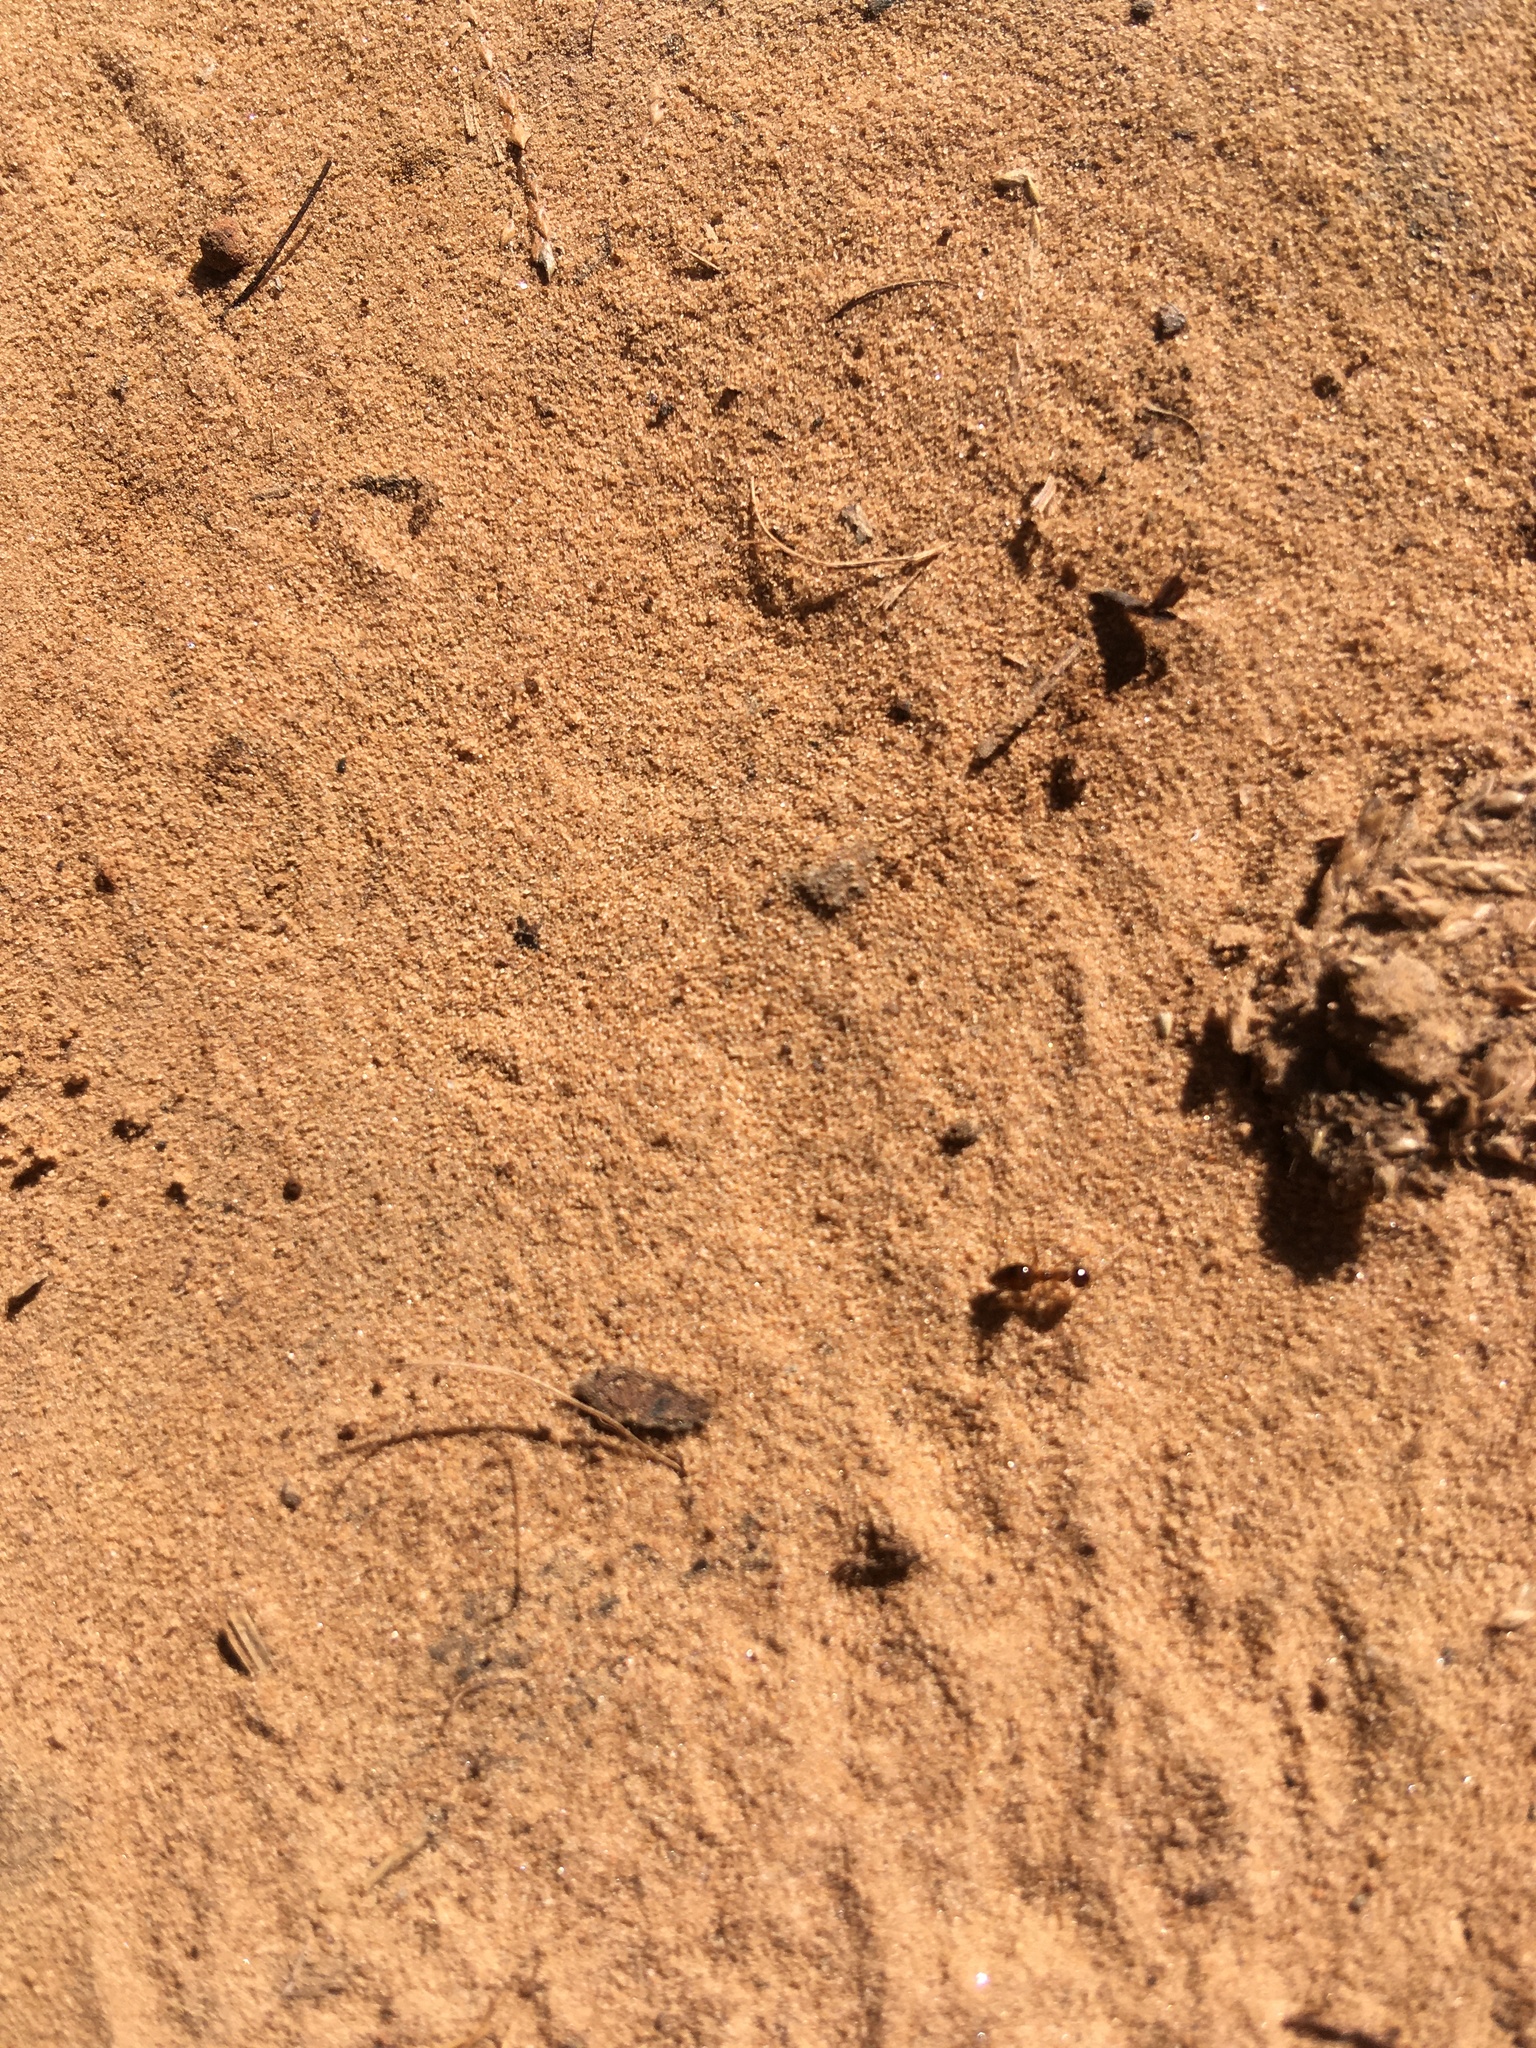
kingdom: Animalia
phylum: Arthropoda
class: Insecta
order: Hymenoptera
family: Formicidae
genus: Prenolepis
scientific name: Prenolepis imparis
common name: Small honey ant
